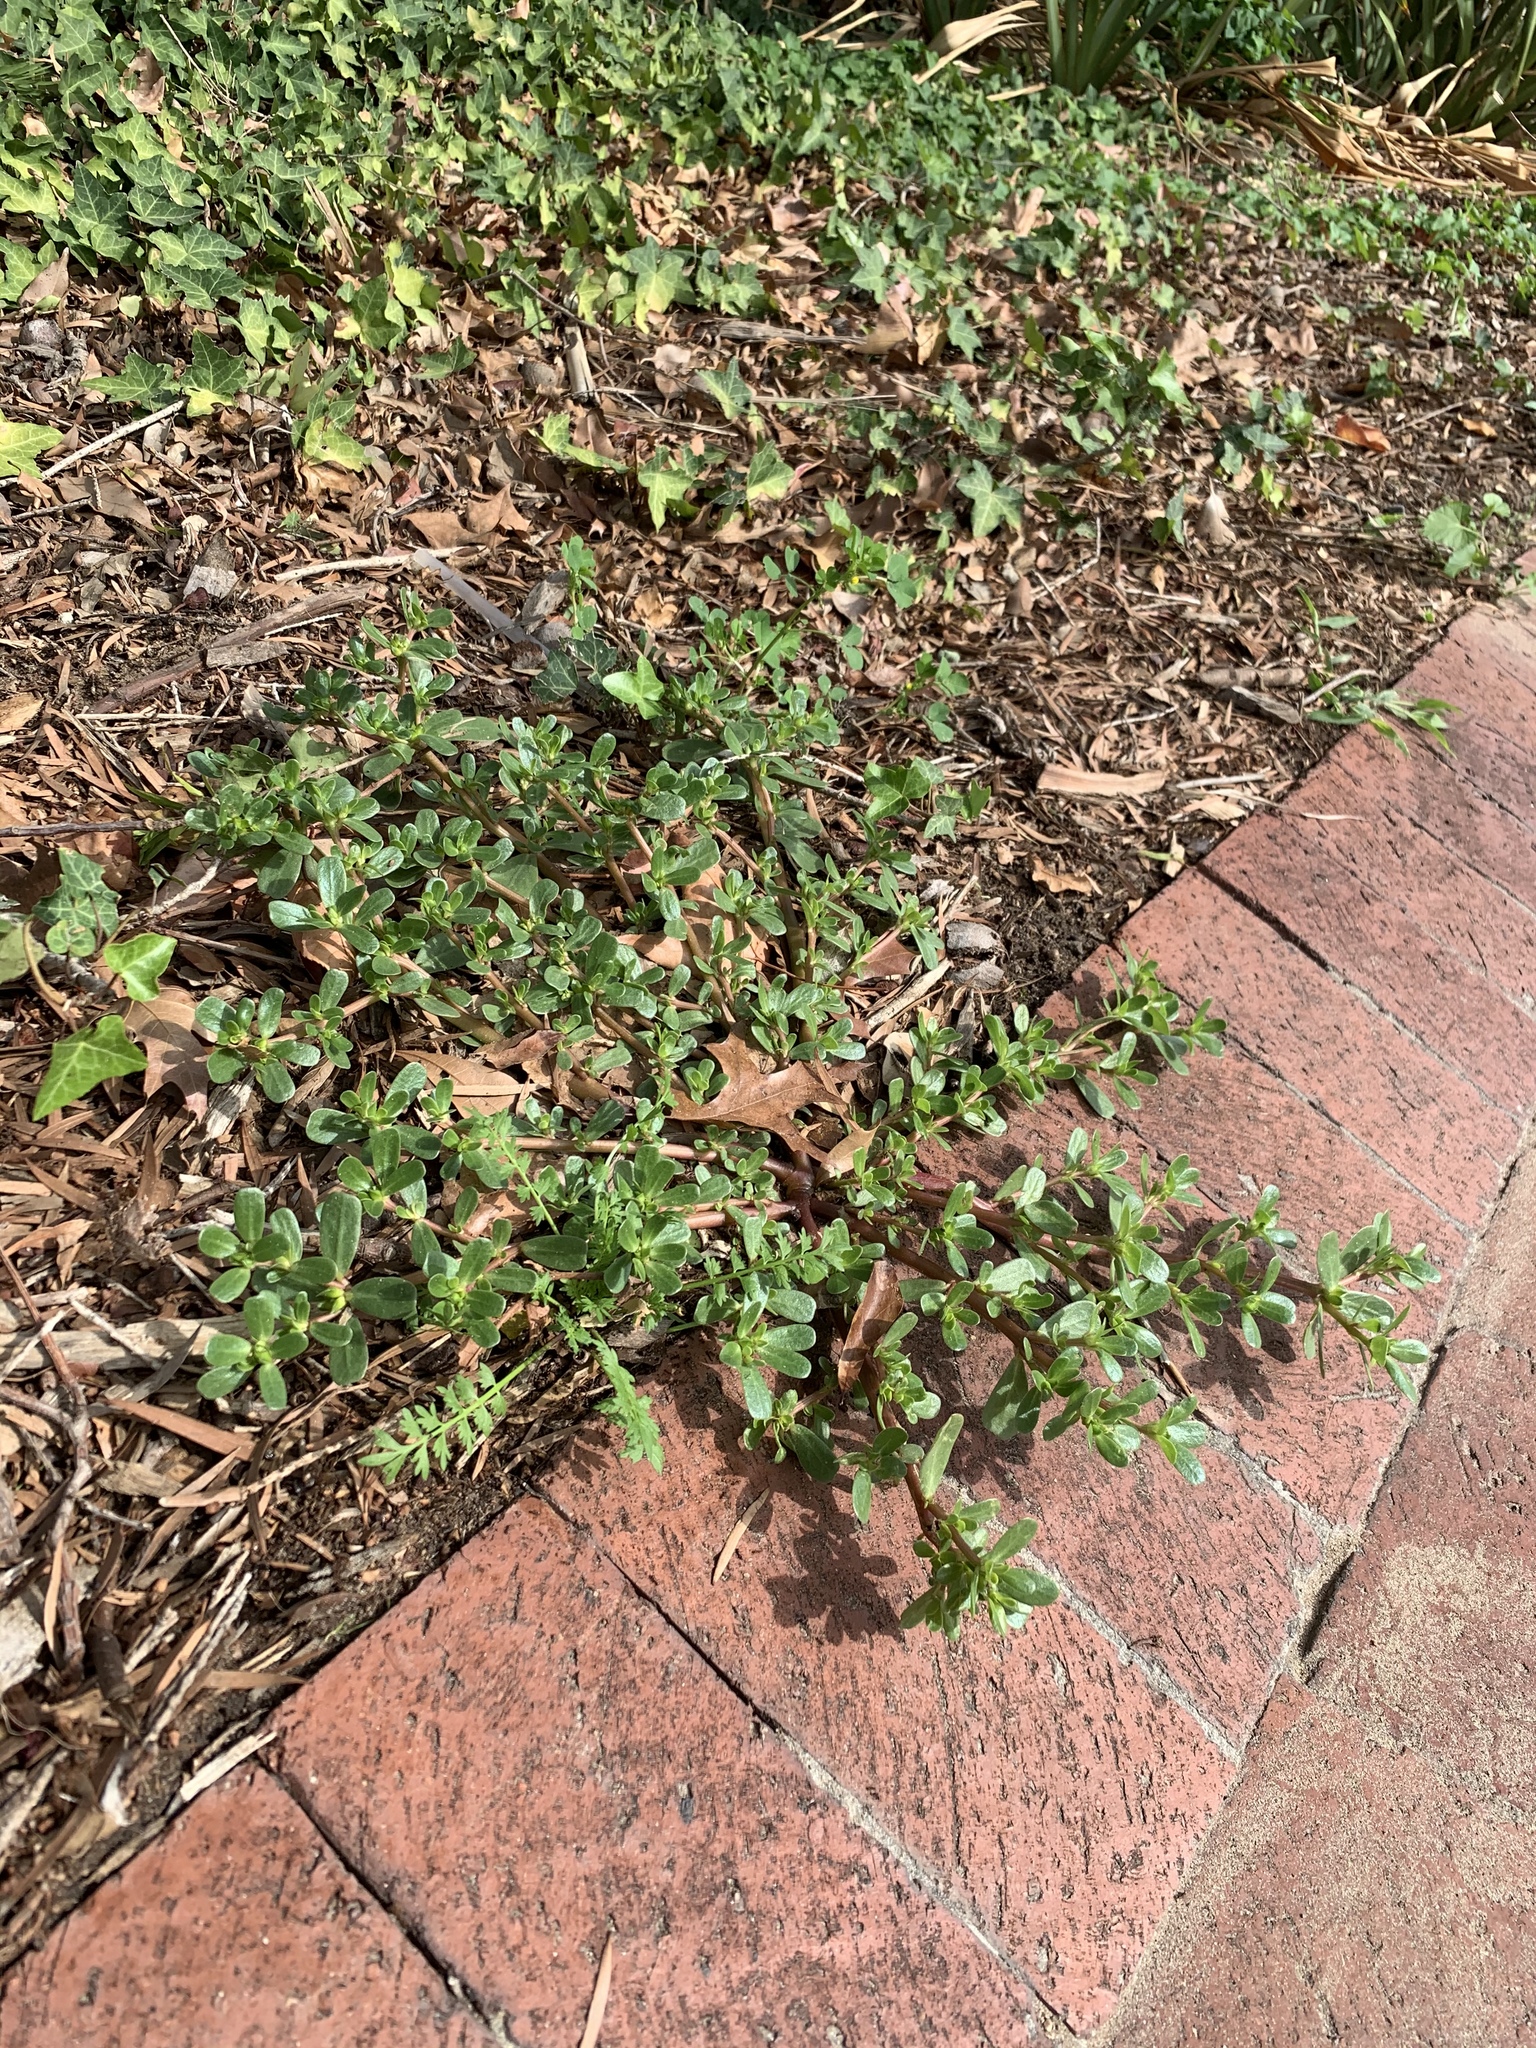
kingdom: Plantae
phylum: Tracheophyta
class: Magnoliopsida
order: Caryophyllales
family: Portulacaceae
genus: Portulaca
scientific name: Portulaca oleracea
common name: Common purslane
